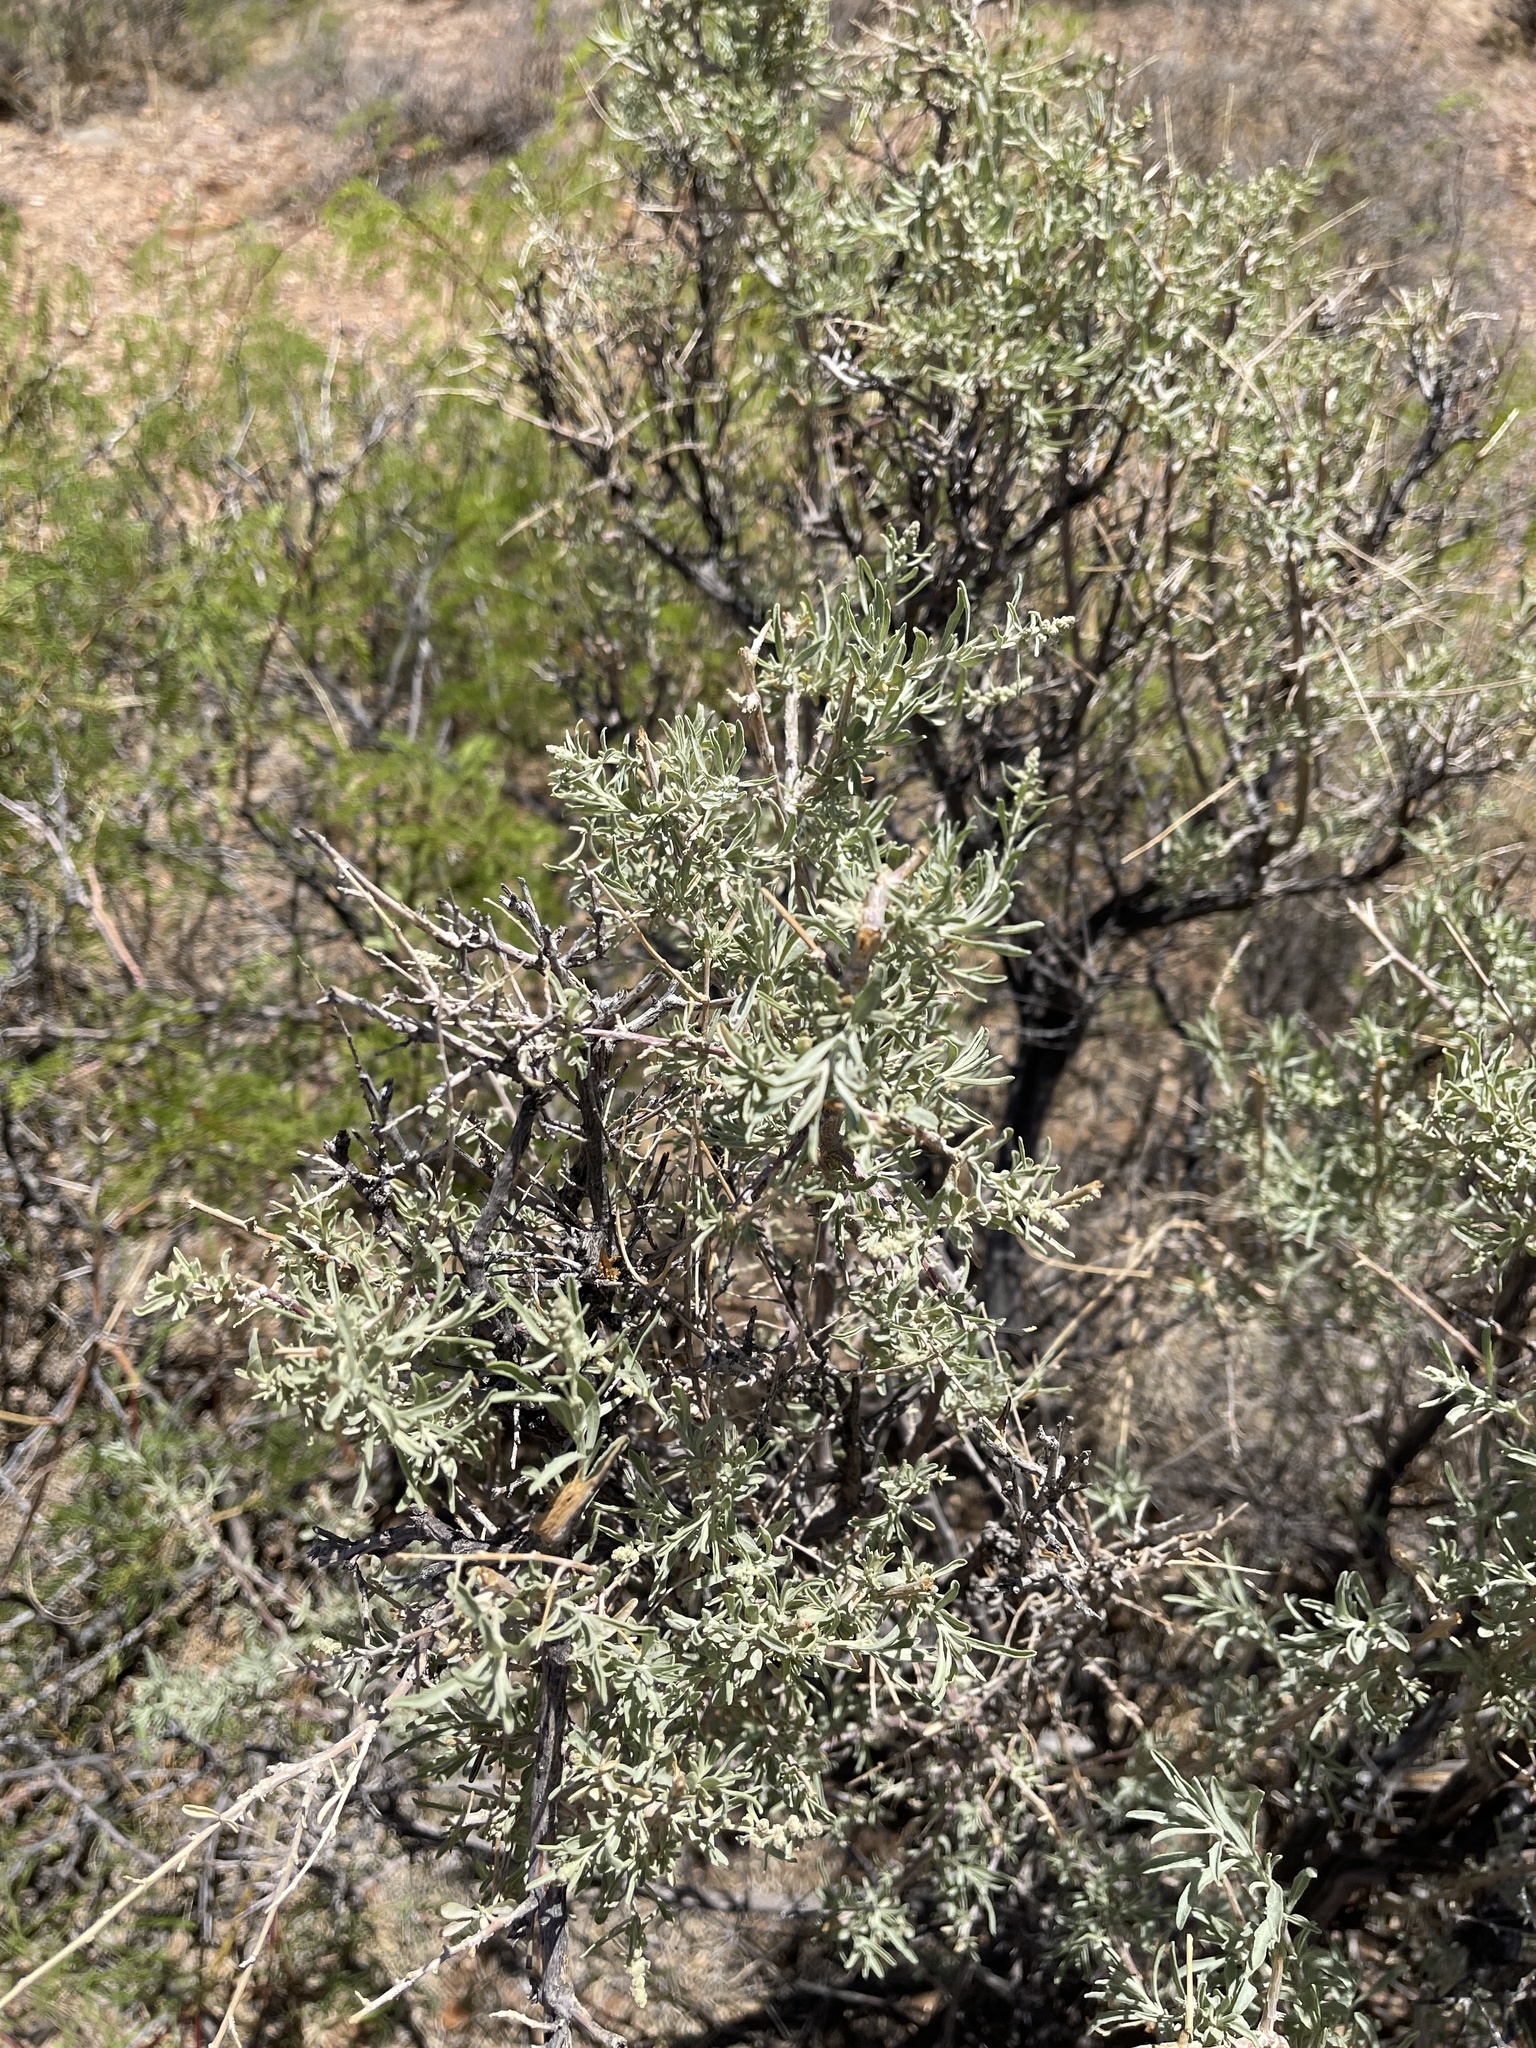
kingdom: Plantae
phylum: Tracheophyta
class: Magnoliopsida
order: Caryophyllales
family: Amaranthaceae
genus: Atriplex
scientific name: Atriplex canescens
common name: Four-wing saltbush
